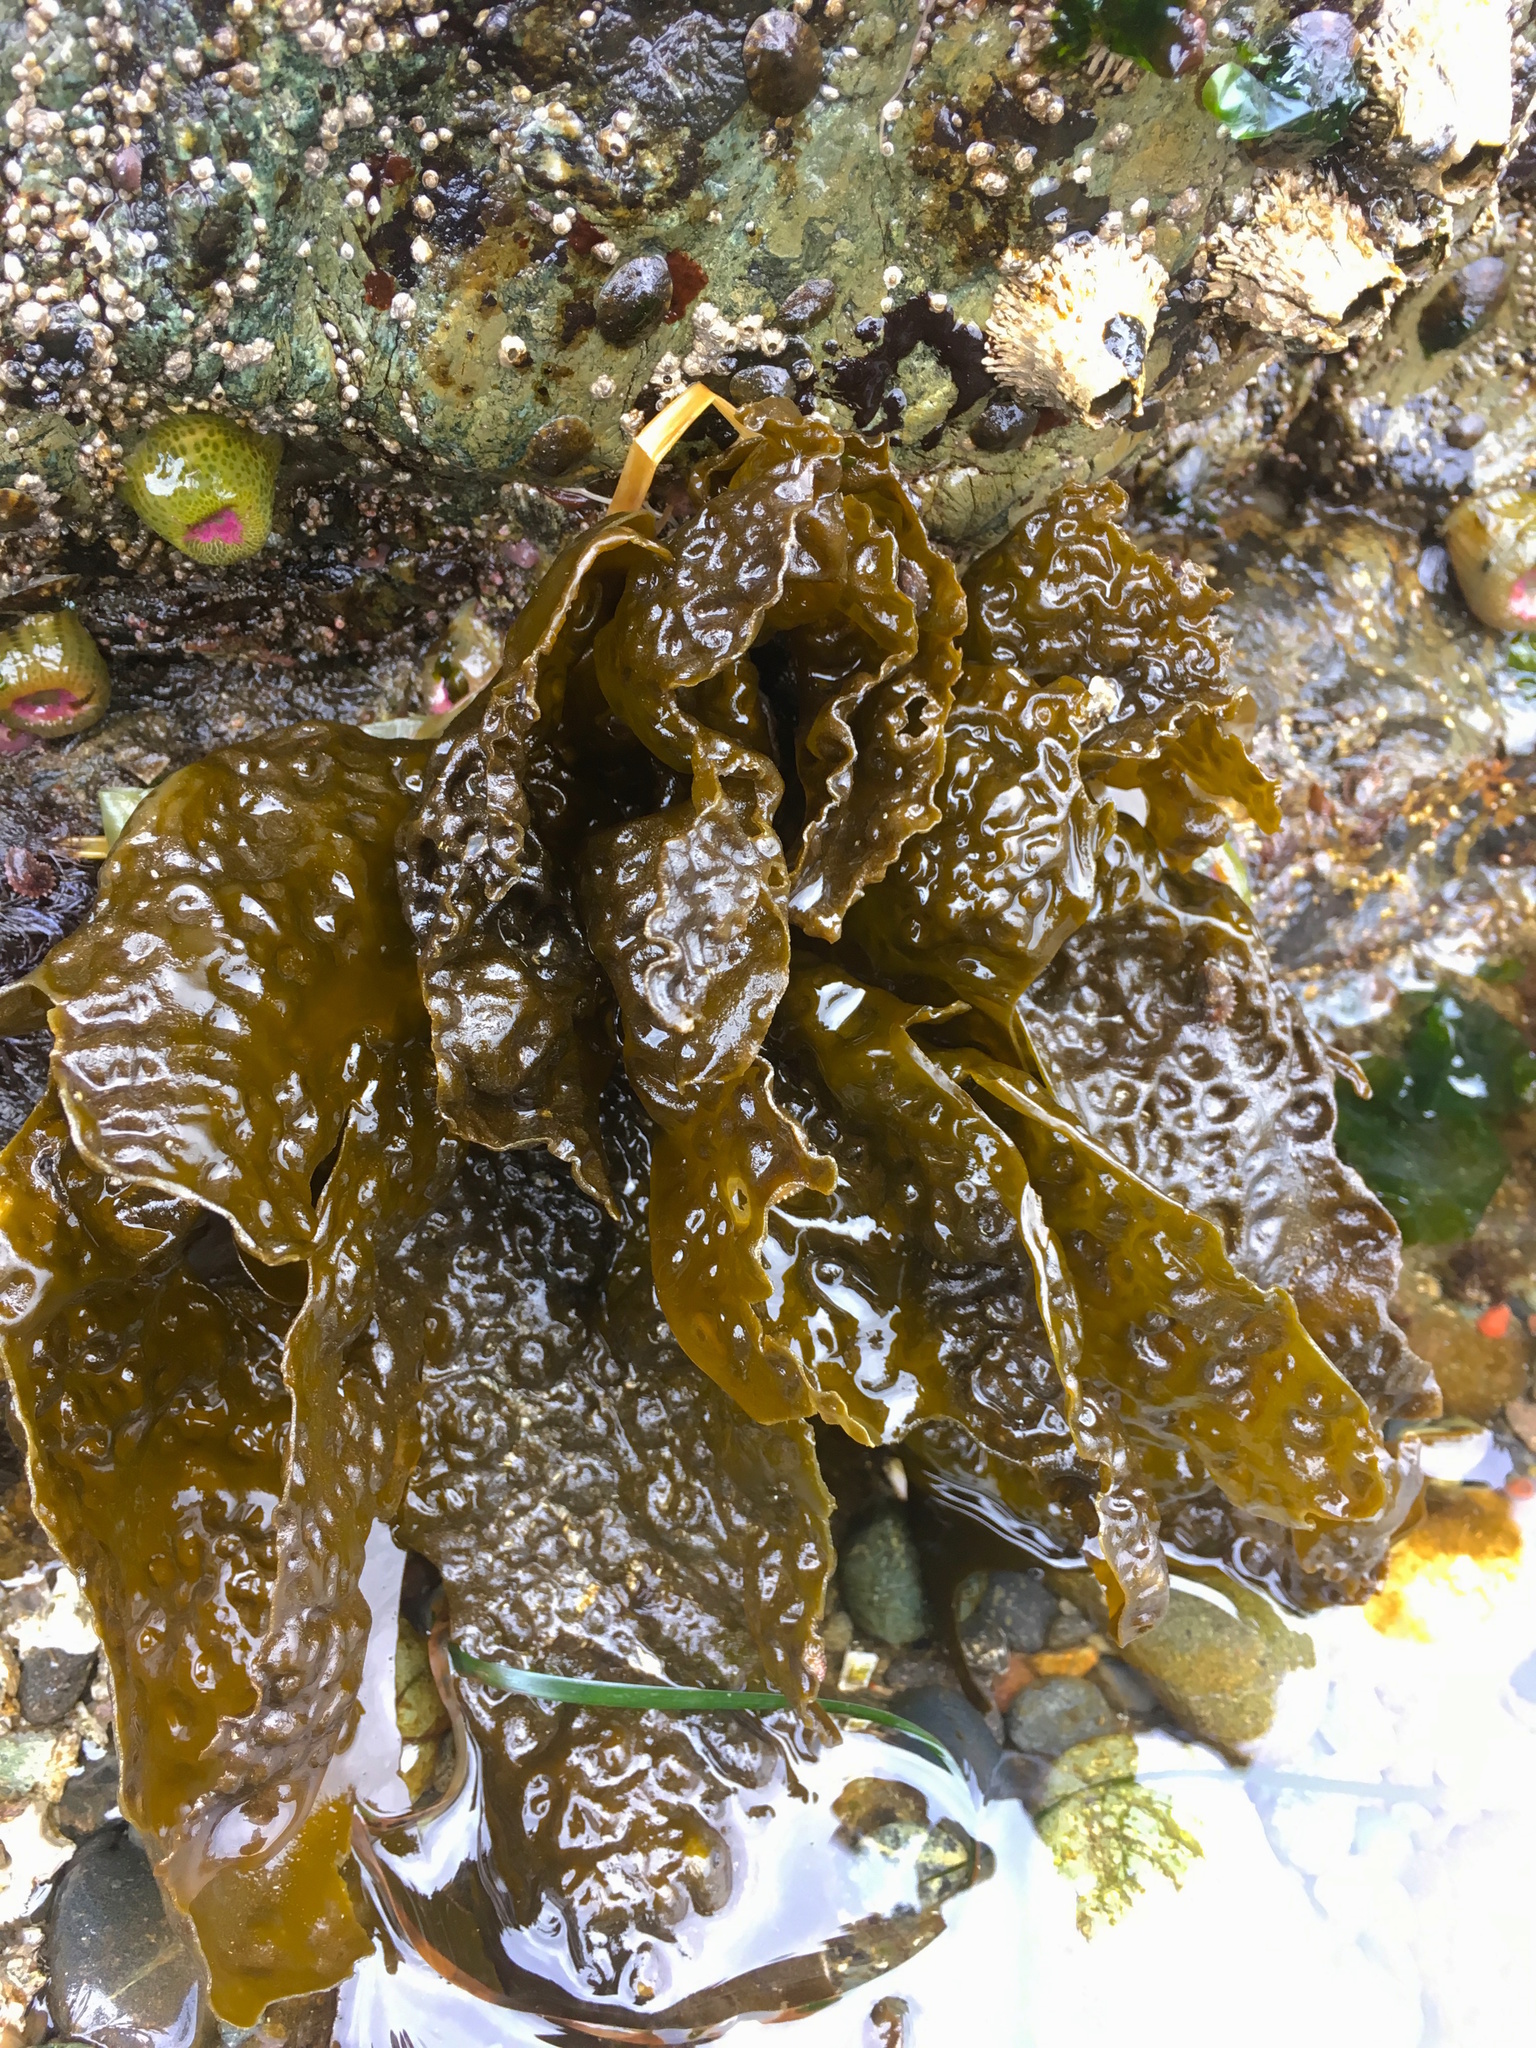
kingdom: Chromista
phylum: Ochrophyta
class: Phaeophyceae
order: Laminariales
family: Laminariaceae
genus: Hedophyllum
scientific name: Hedophyllum sessile
